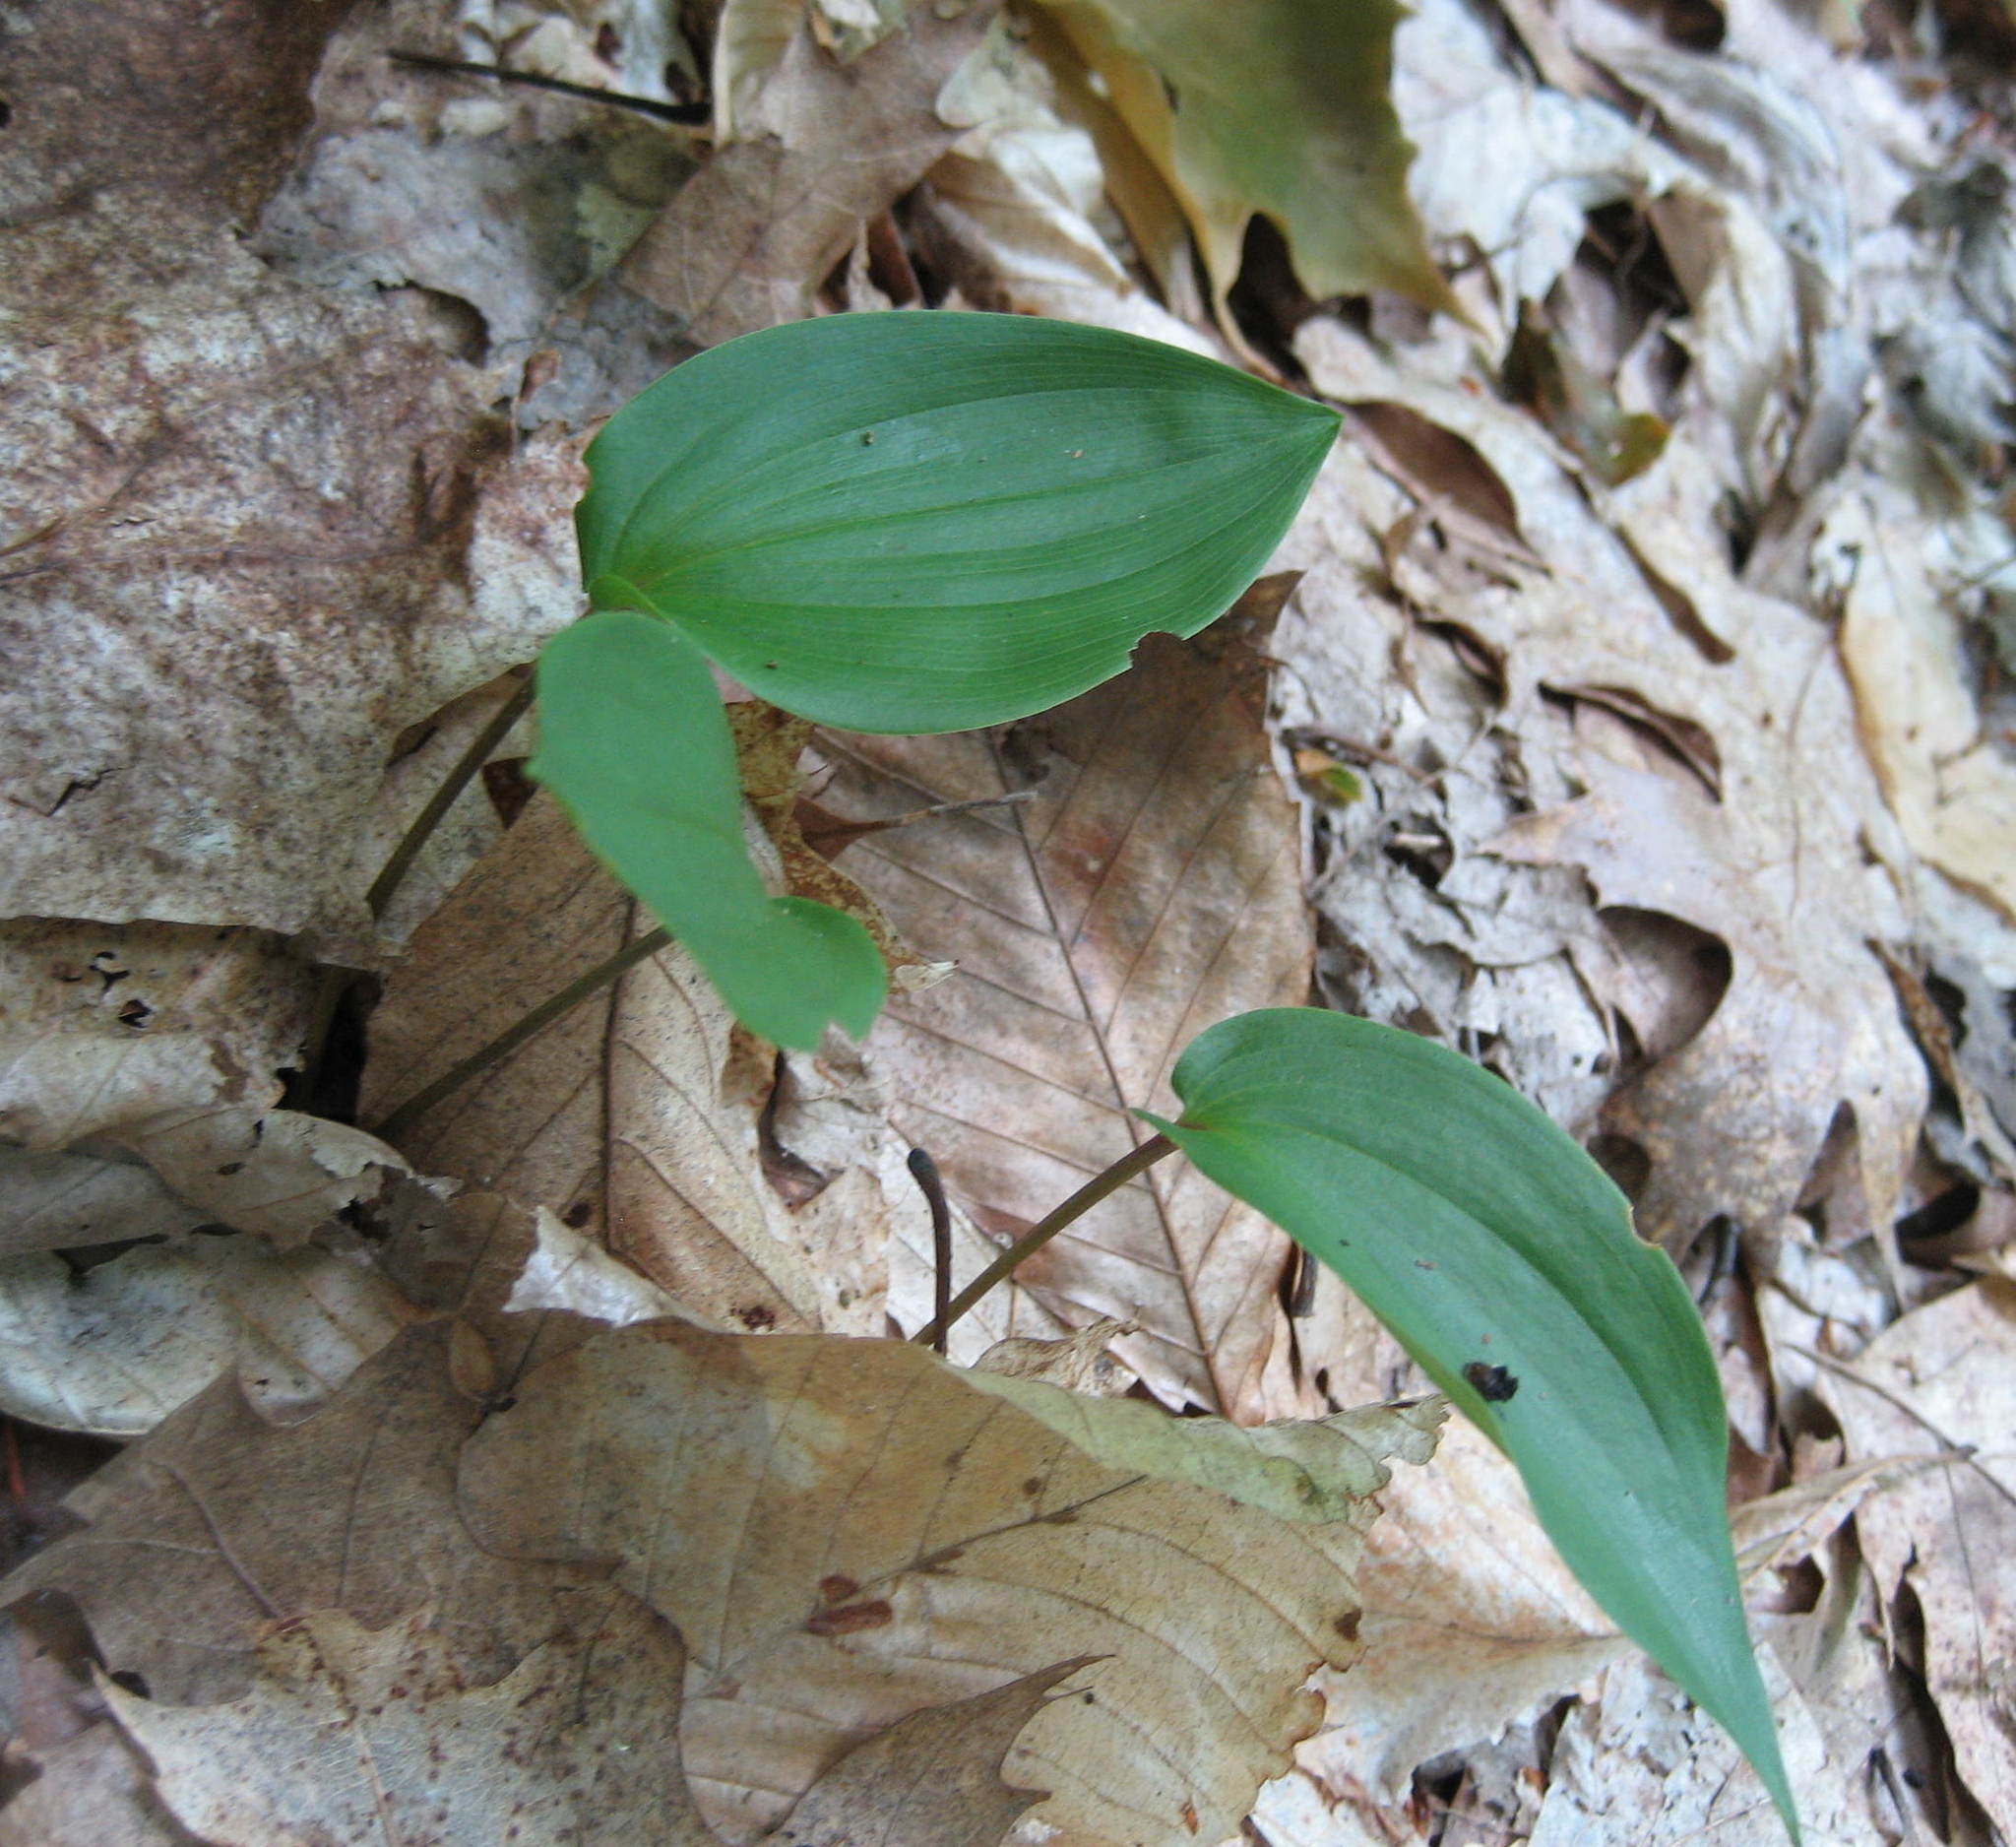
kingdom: Plantae
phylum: Tracheophyta
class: Liliopsida
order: Asparagales
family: Asparagaceae
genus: Maianthemum
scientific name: Maianthemum canadense
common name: False lily-of-the-valley
